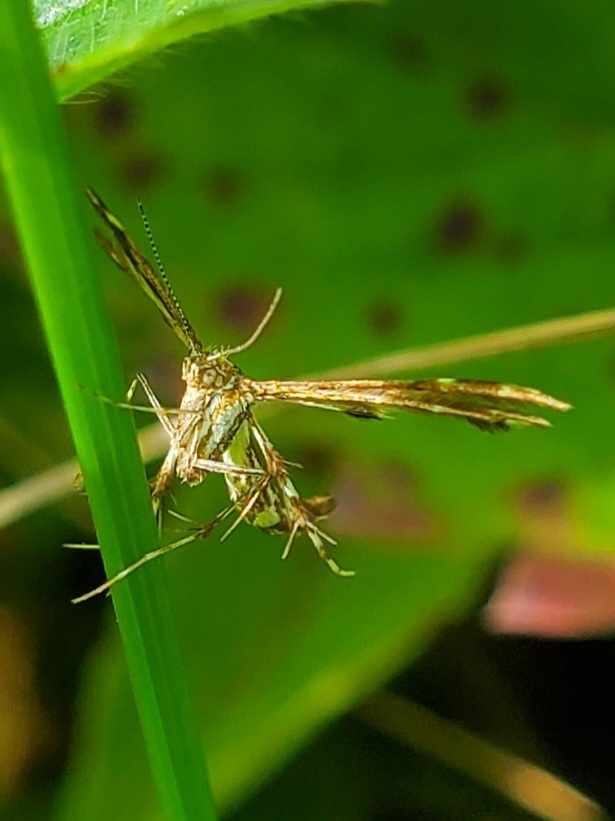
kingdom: Animalia
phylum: Arthropoda
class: Insecta
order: Lepidoptera
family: Pterophoridae
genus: Geina
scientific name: Geina
